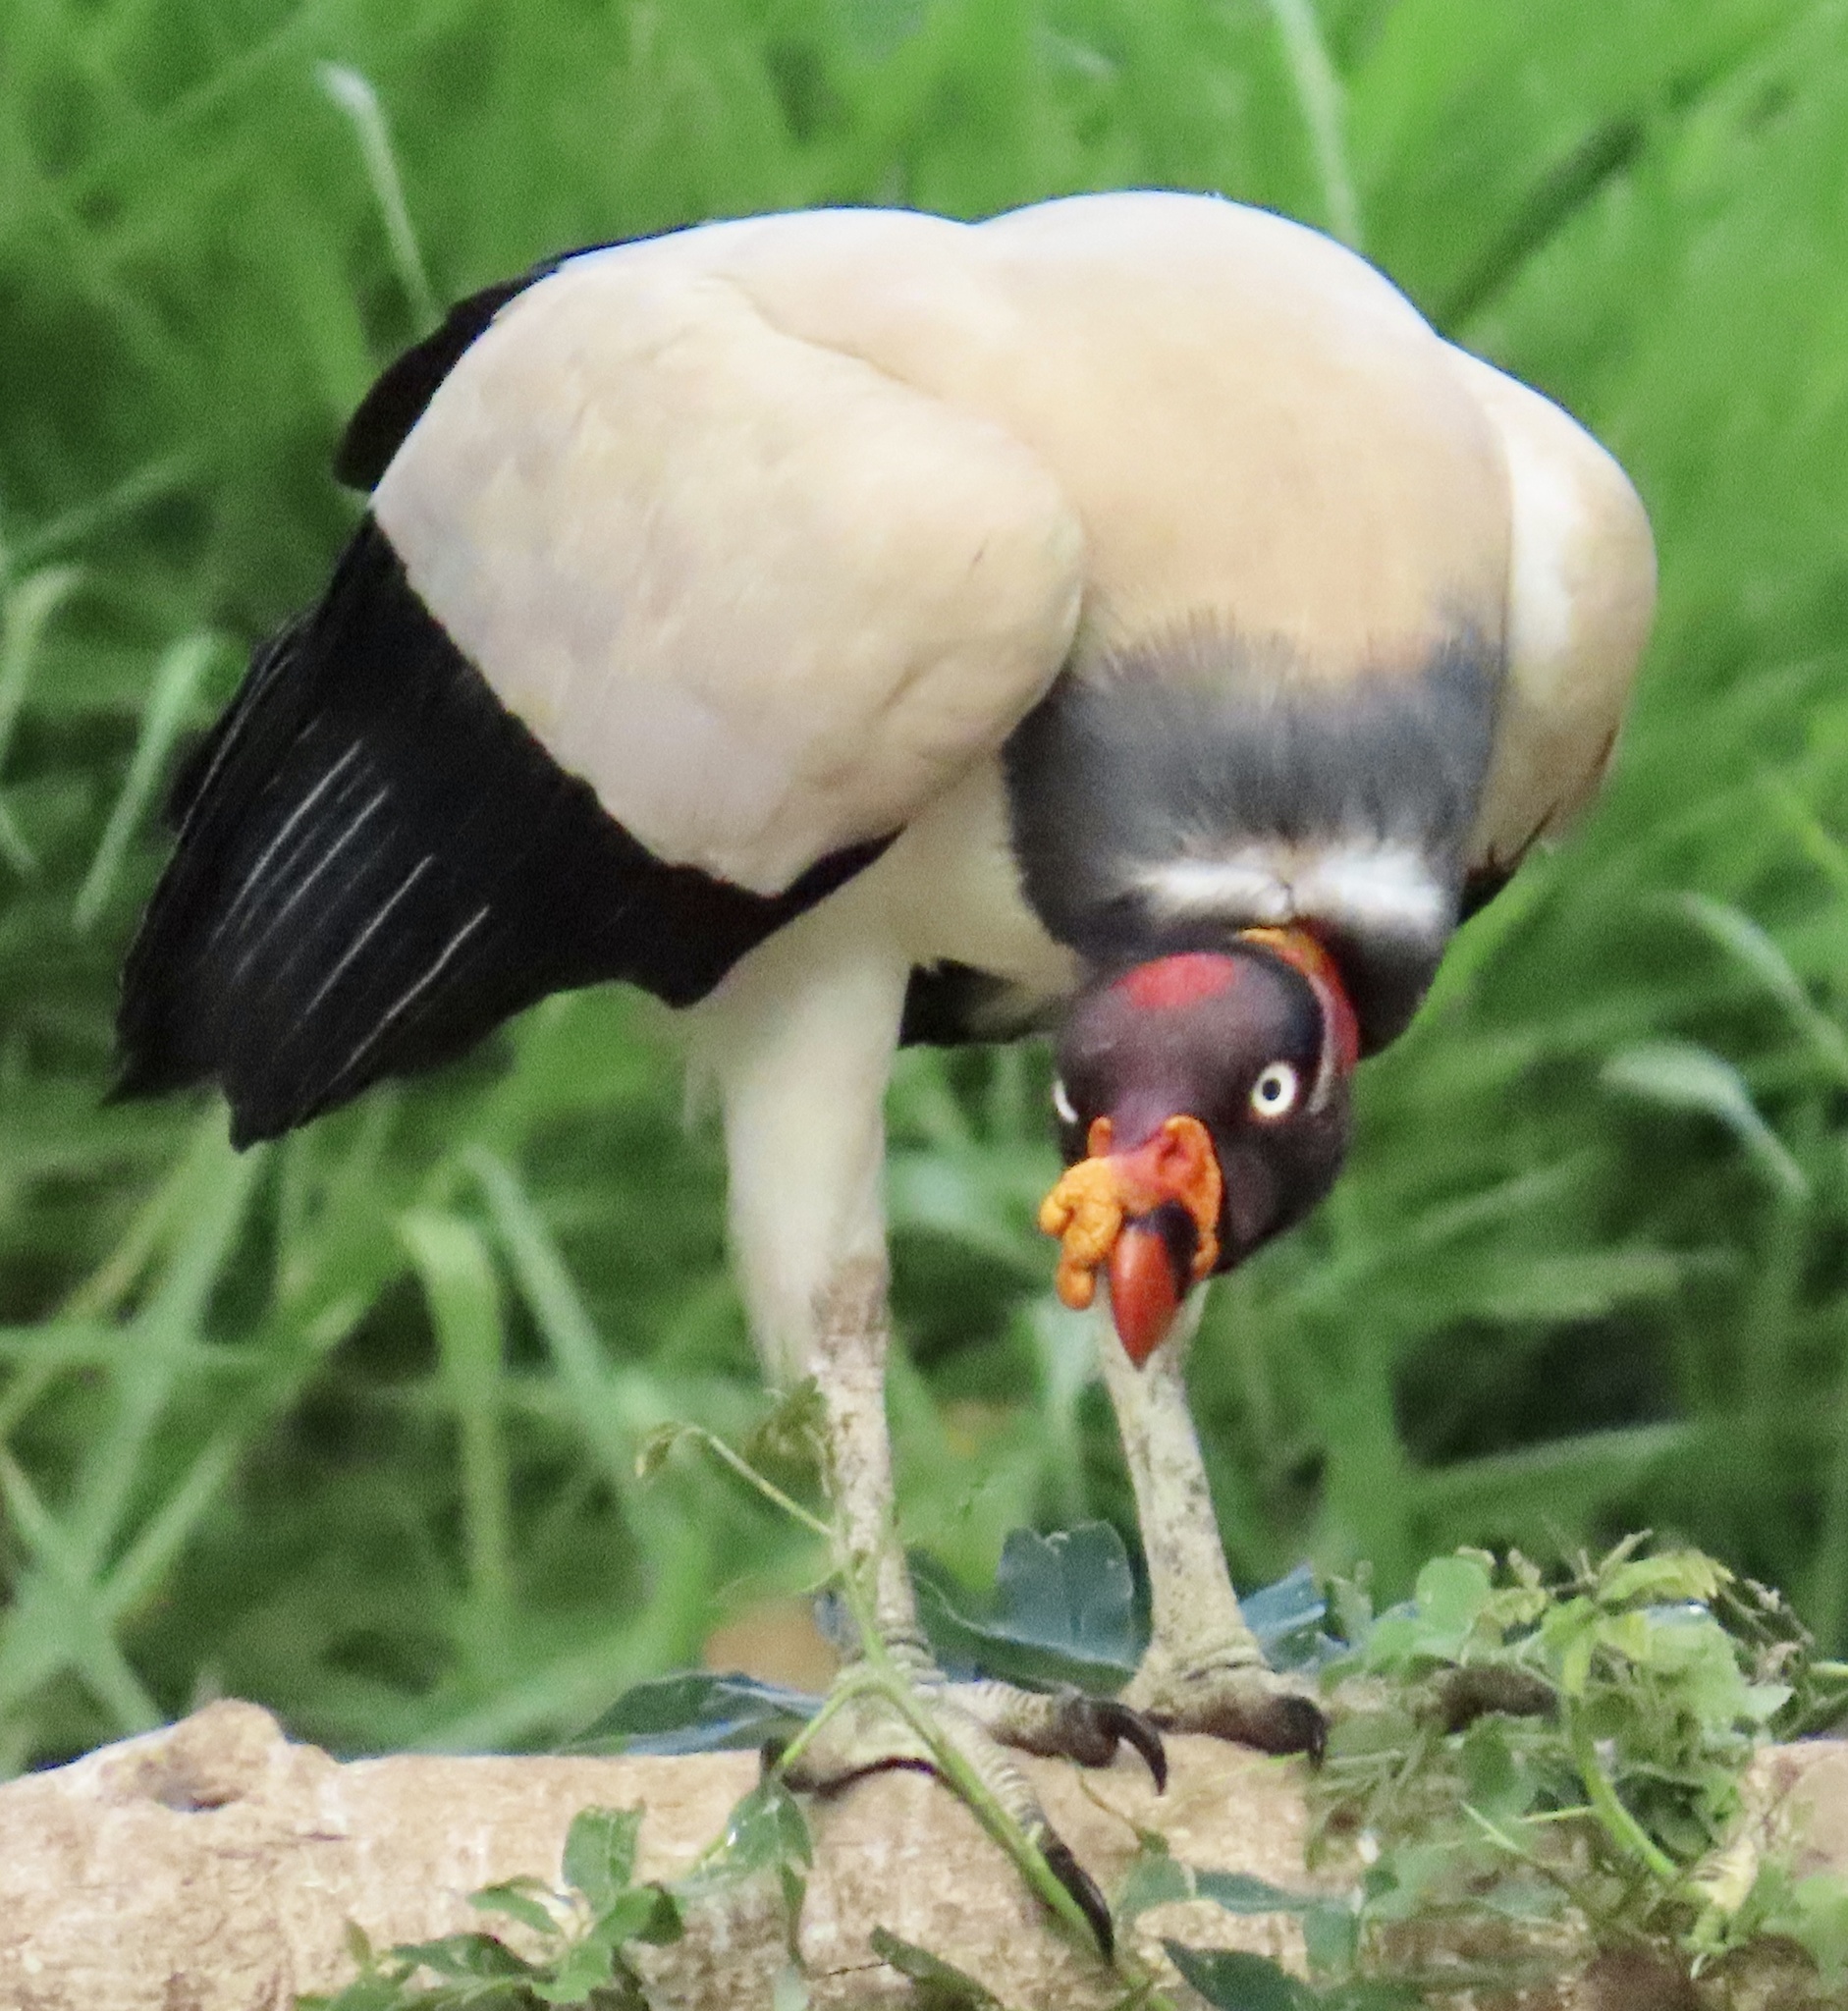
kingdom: Animalia
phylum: Chordata
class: Aves
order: Accipitriformes
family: Cathartidae
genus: Sarcoramphus
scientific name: Sarcoramphus papa
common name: King vulture
